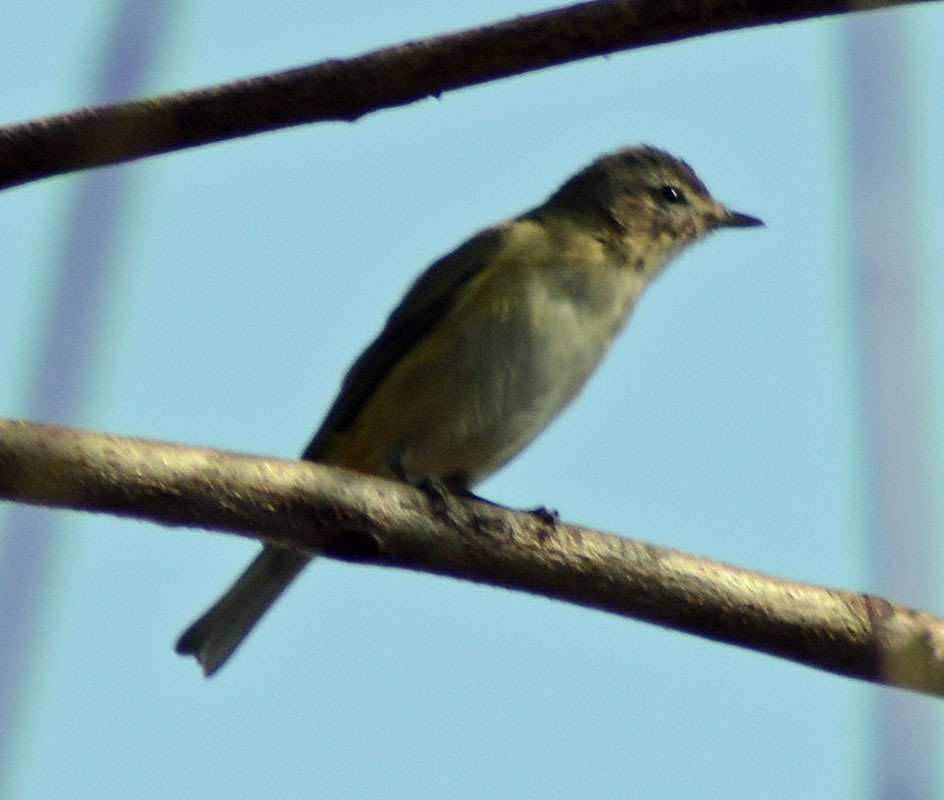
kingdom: Animalia
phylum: Chordata
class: Aves
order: Passeriformes
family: Vireonidae
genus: Vireo
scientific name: Vireo gilvus
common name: Warbling vireo
